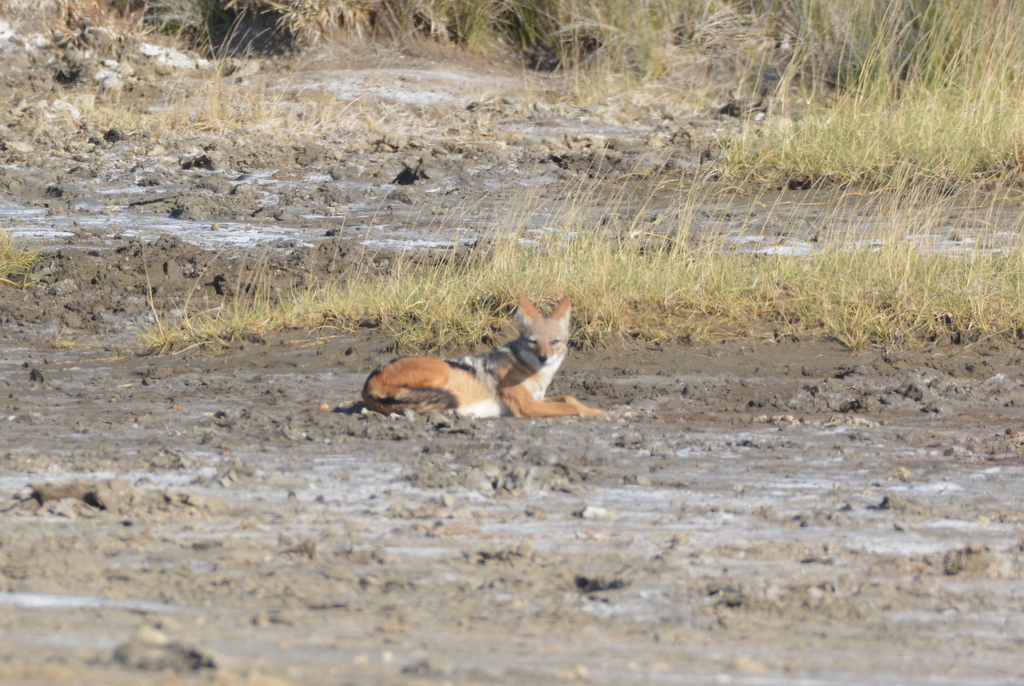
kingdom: Animalia
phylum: Chordata
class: Mammalia
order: Carnivora
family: Canidae
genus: Lupulella
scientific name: Lupulella
